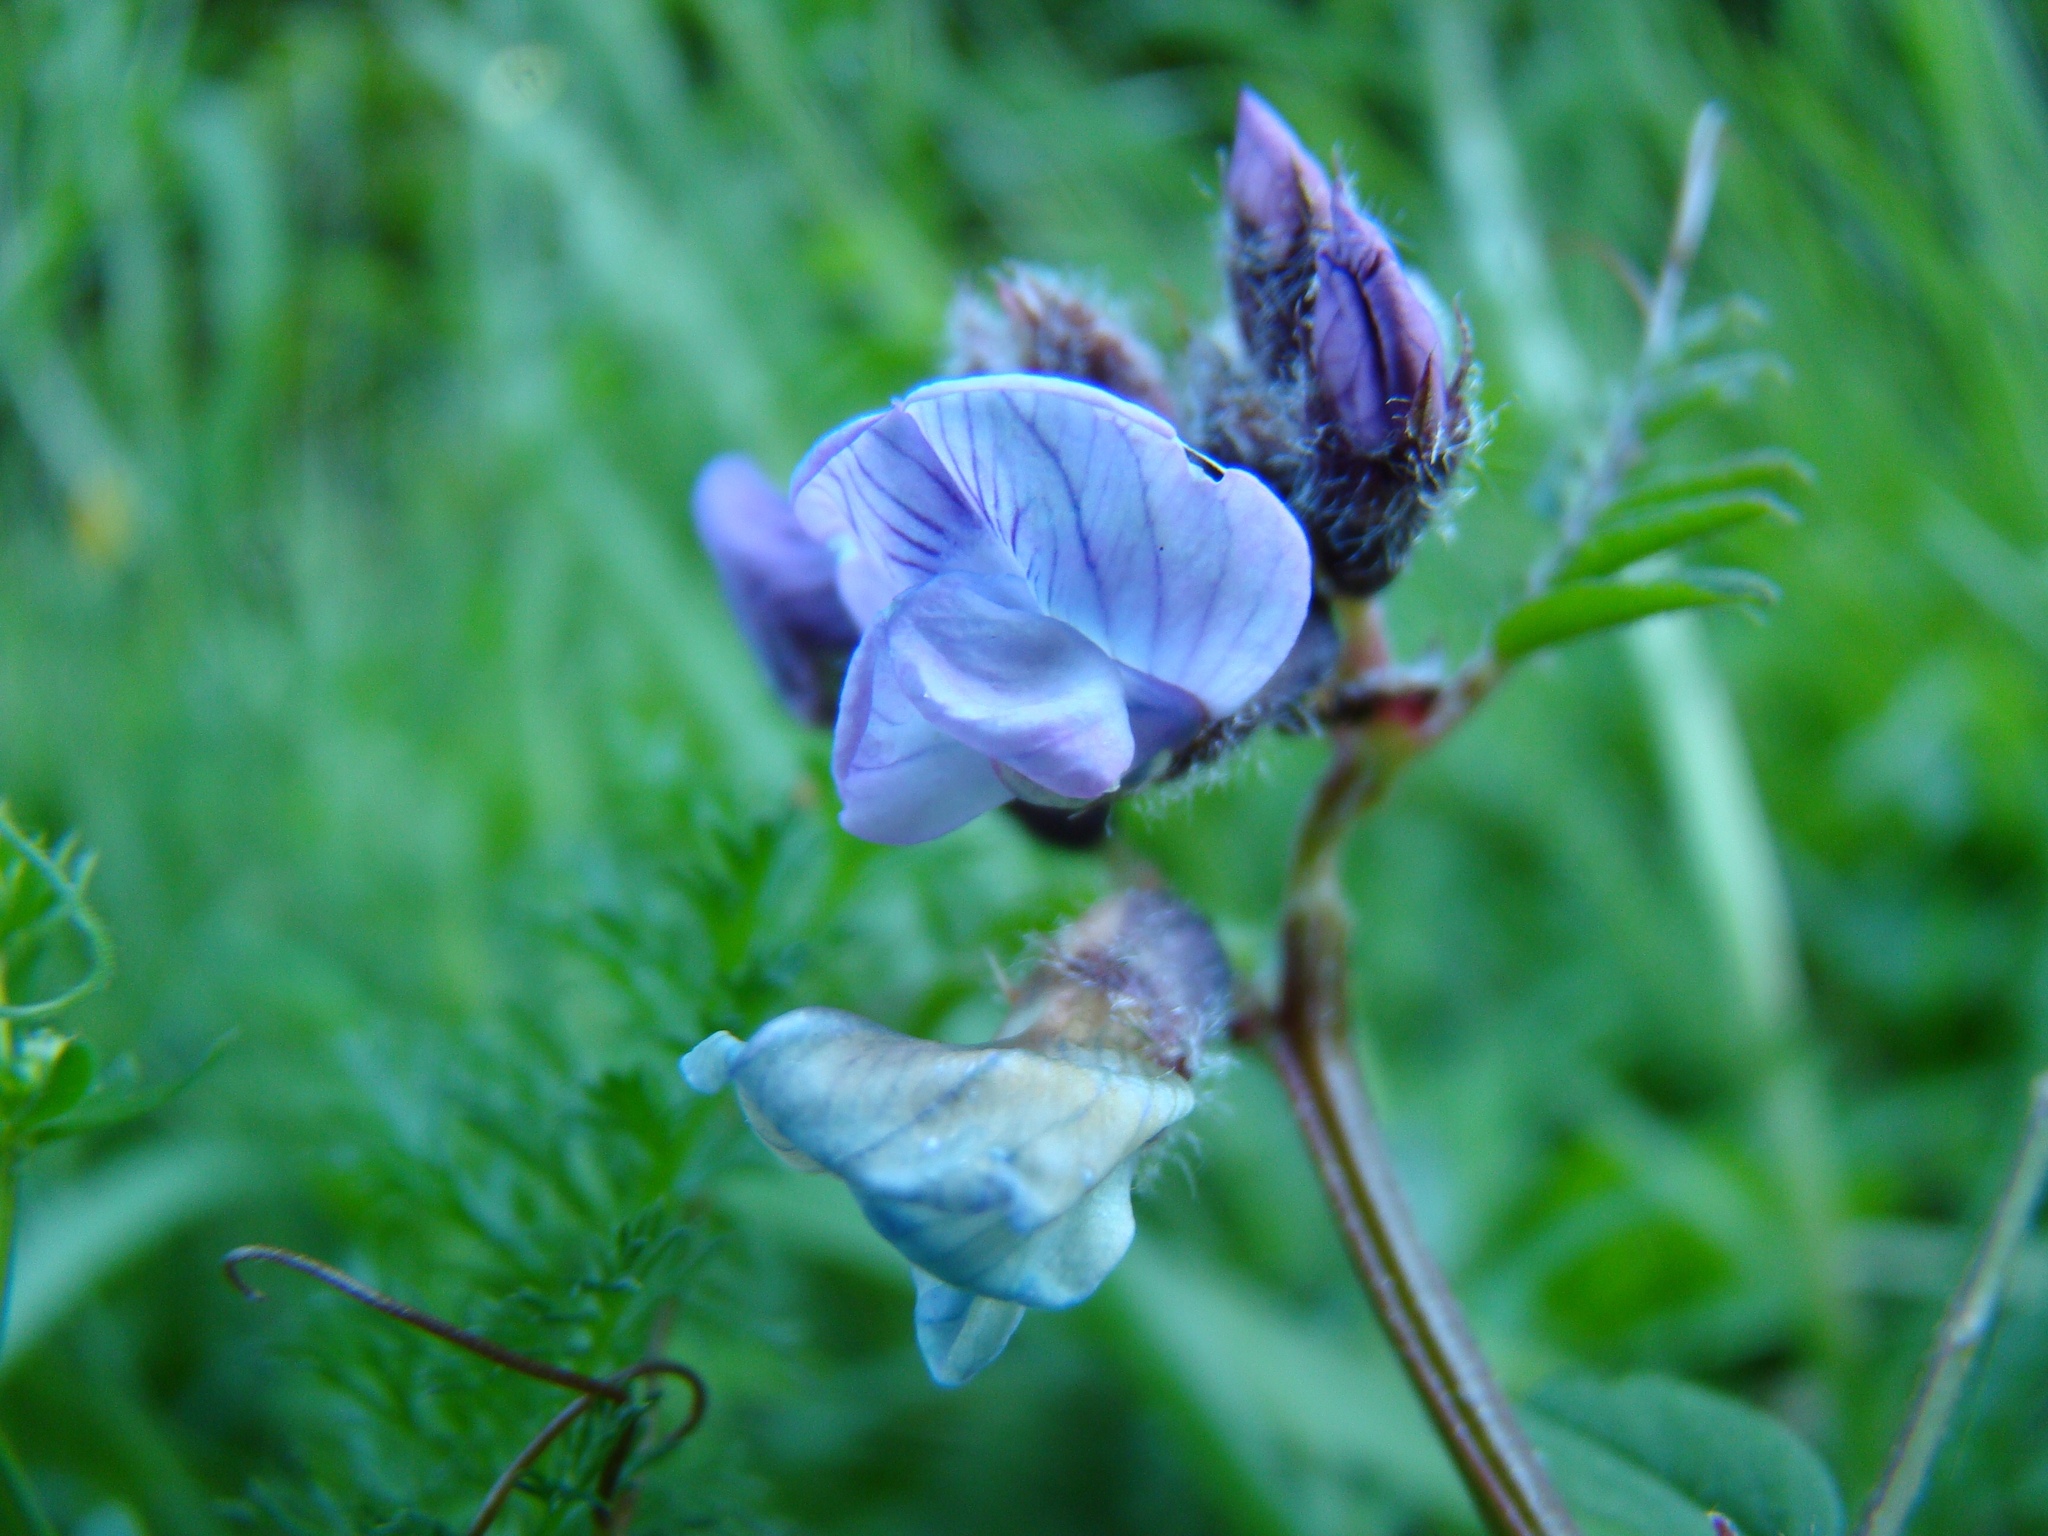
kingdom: Plantae
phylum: Tracheophyta
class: Magnoliopsida
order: Fabales
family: Fabaceae
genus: Vicia
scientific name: Vicia sepium
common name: Bush vetch
